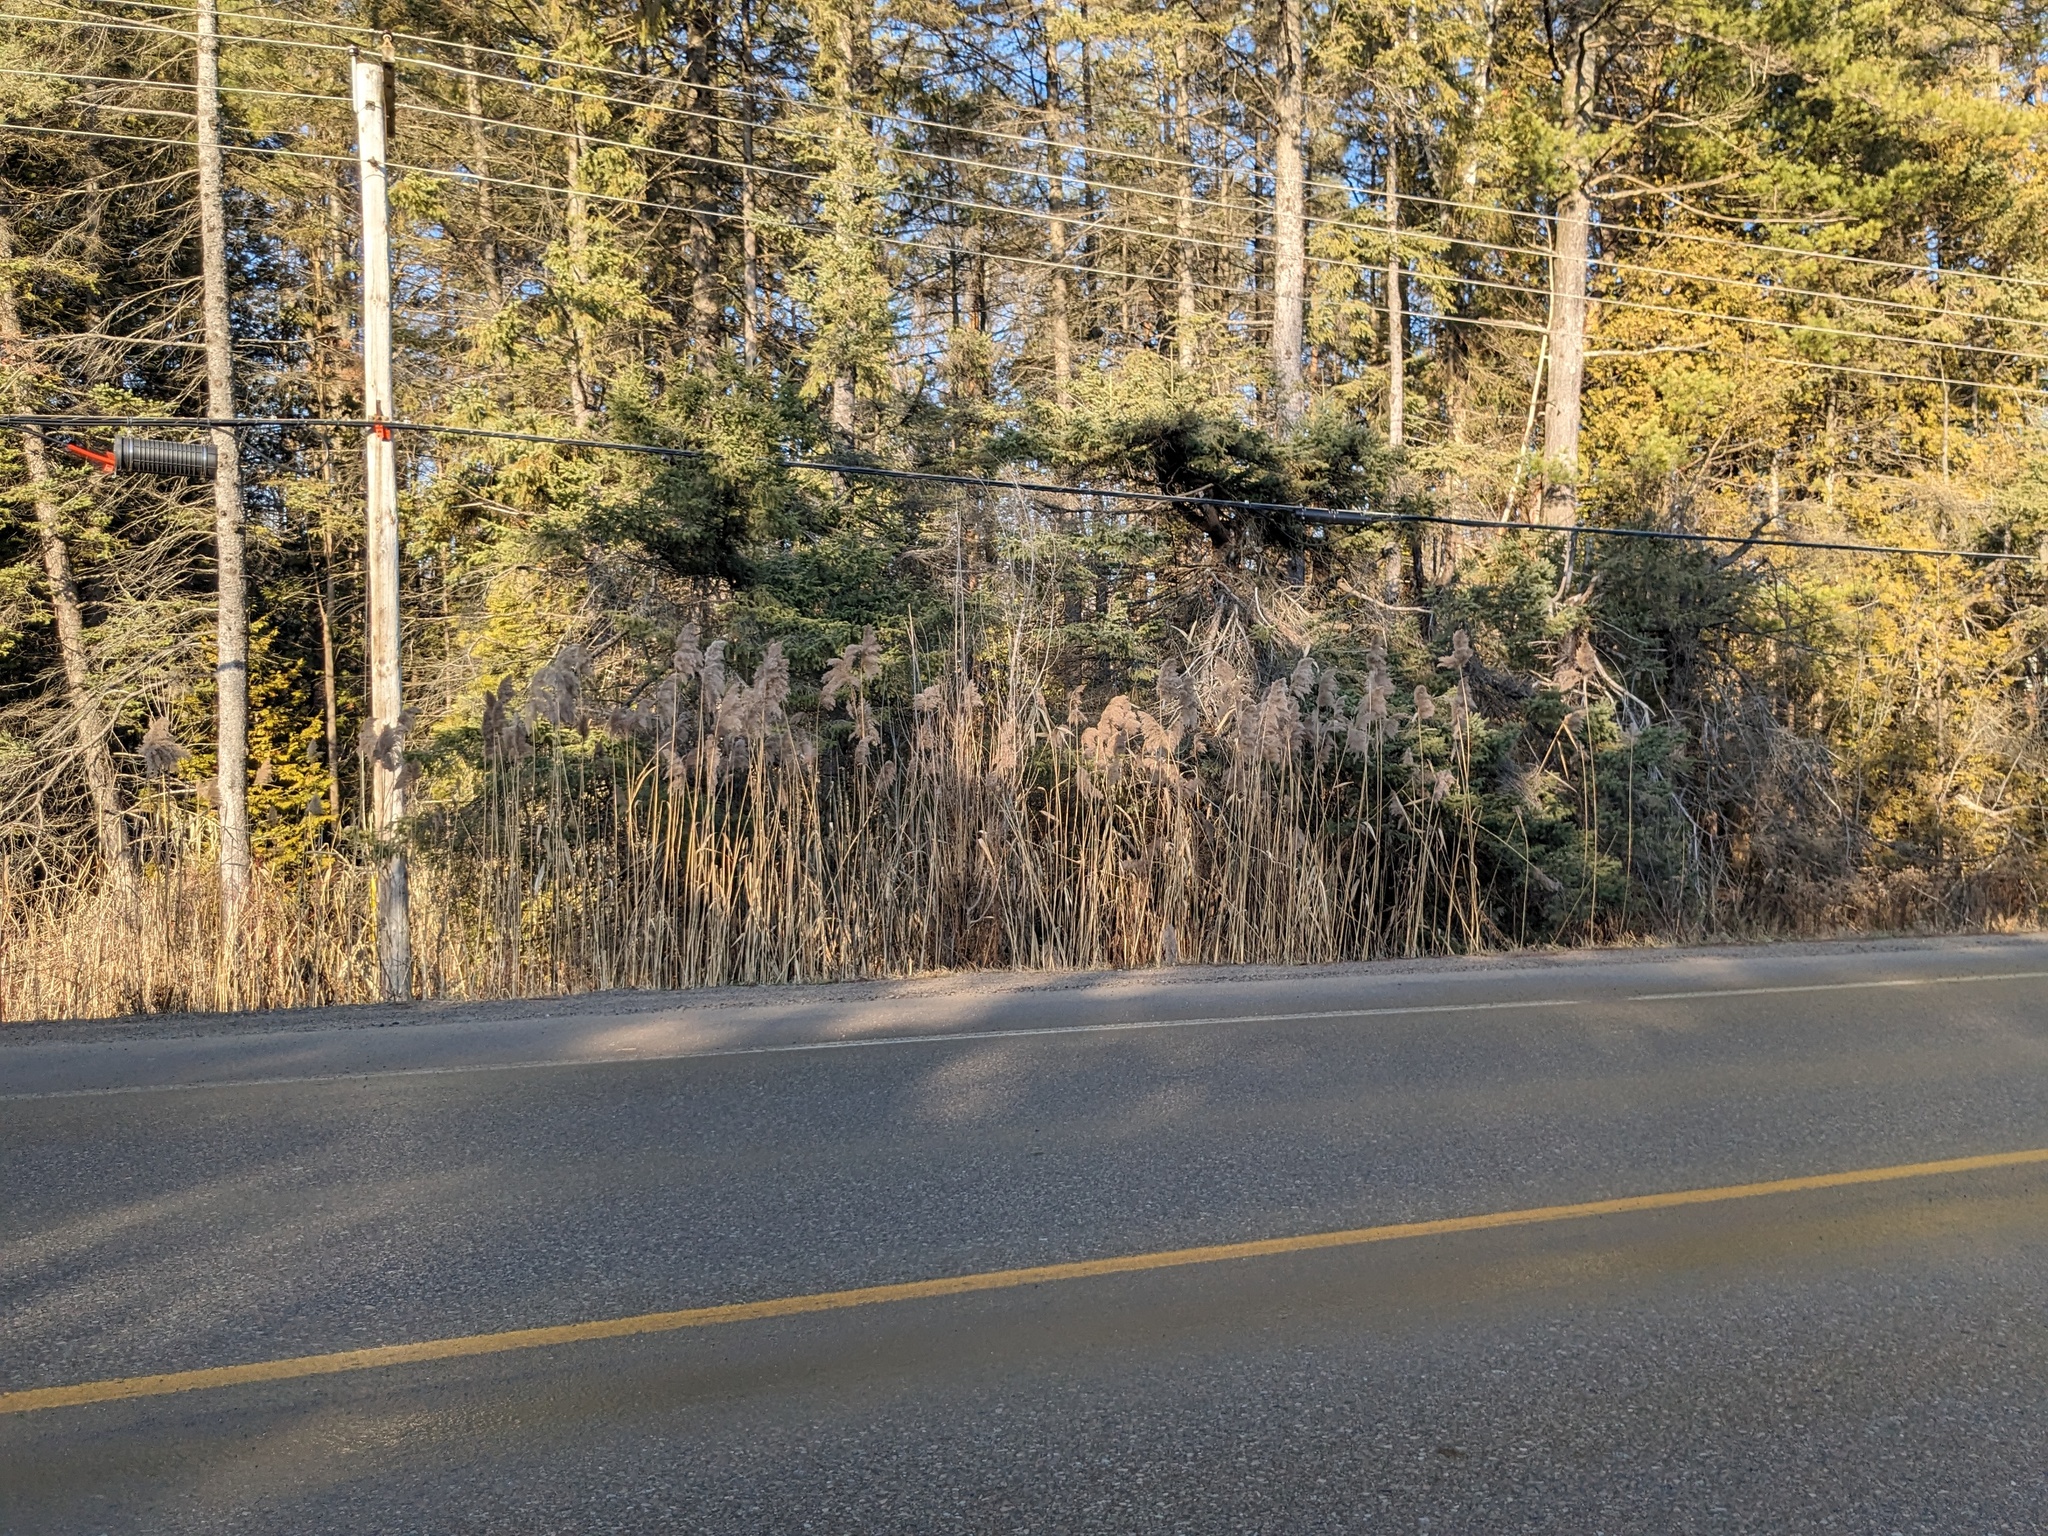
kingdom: Plantae
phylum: Tracheophyta
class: Liliopsida
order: Poales
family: Poaceae
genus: Phragmites
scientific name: Phragmites australis
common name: Common reed
